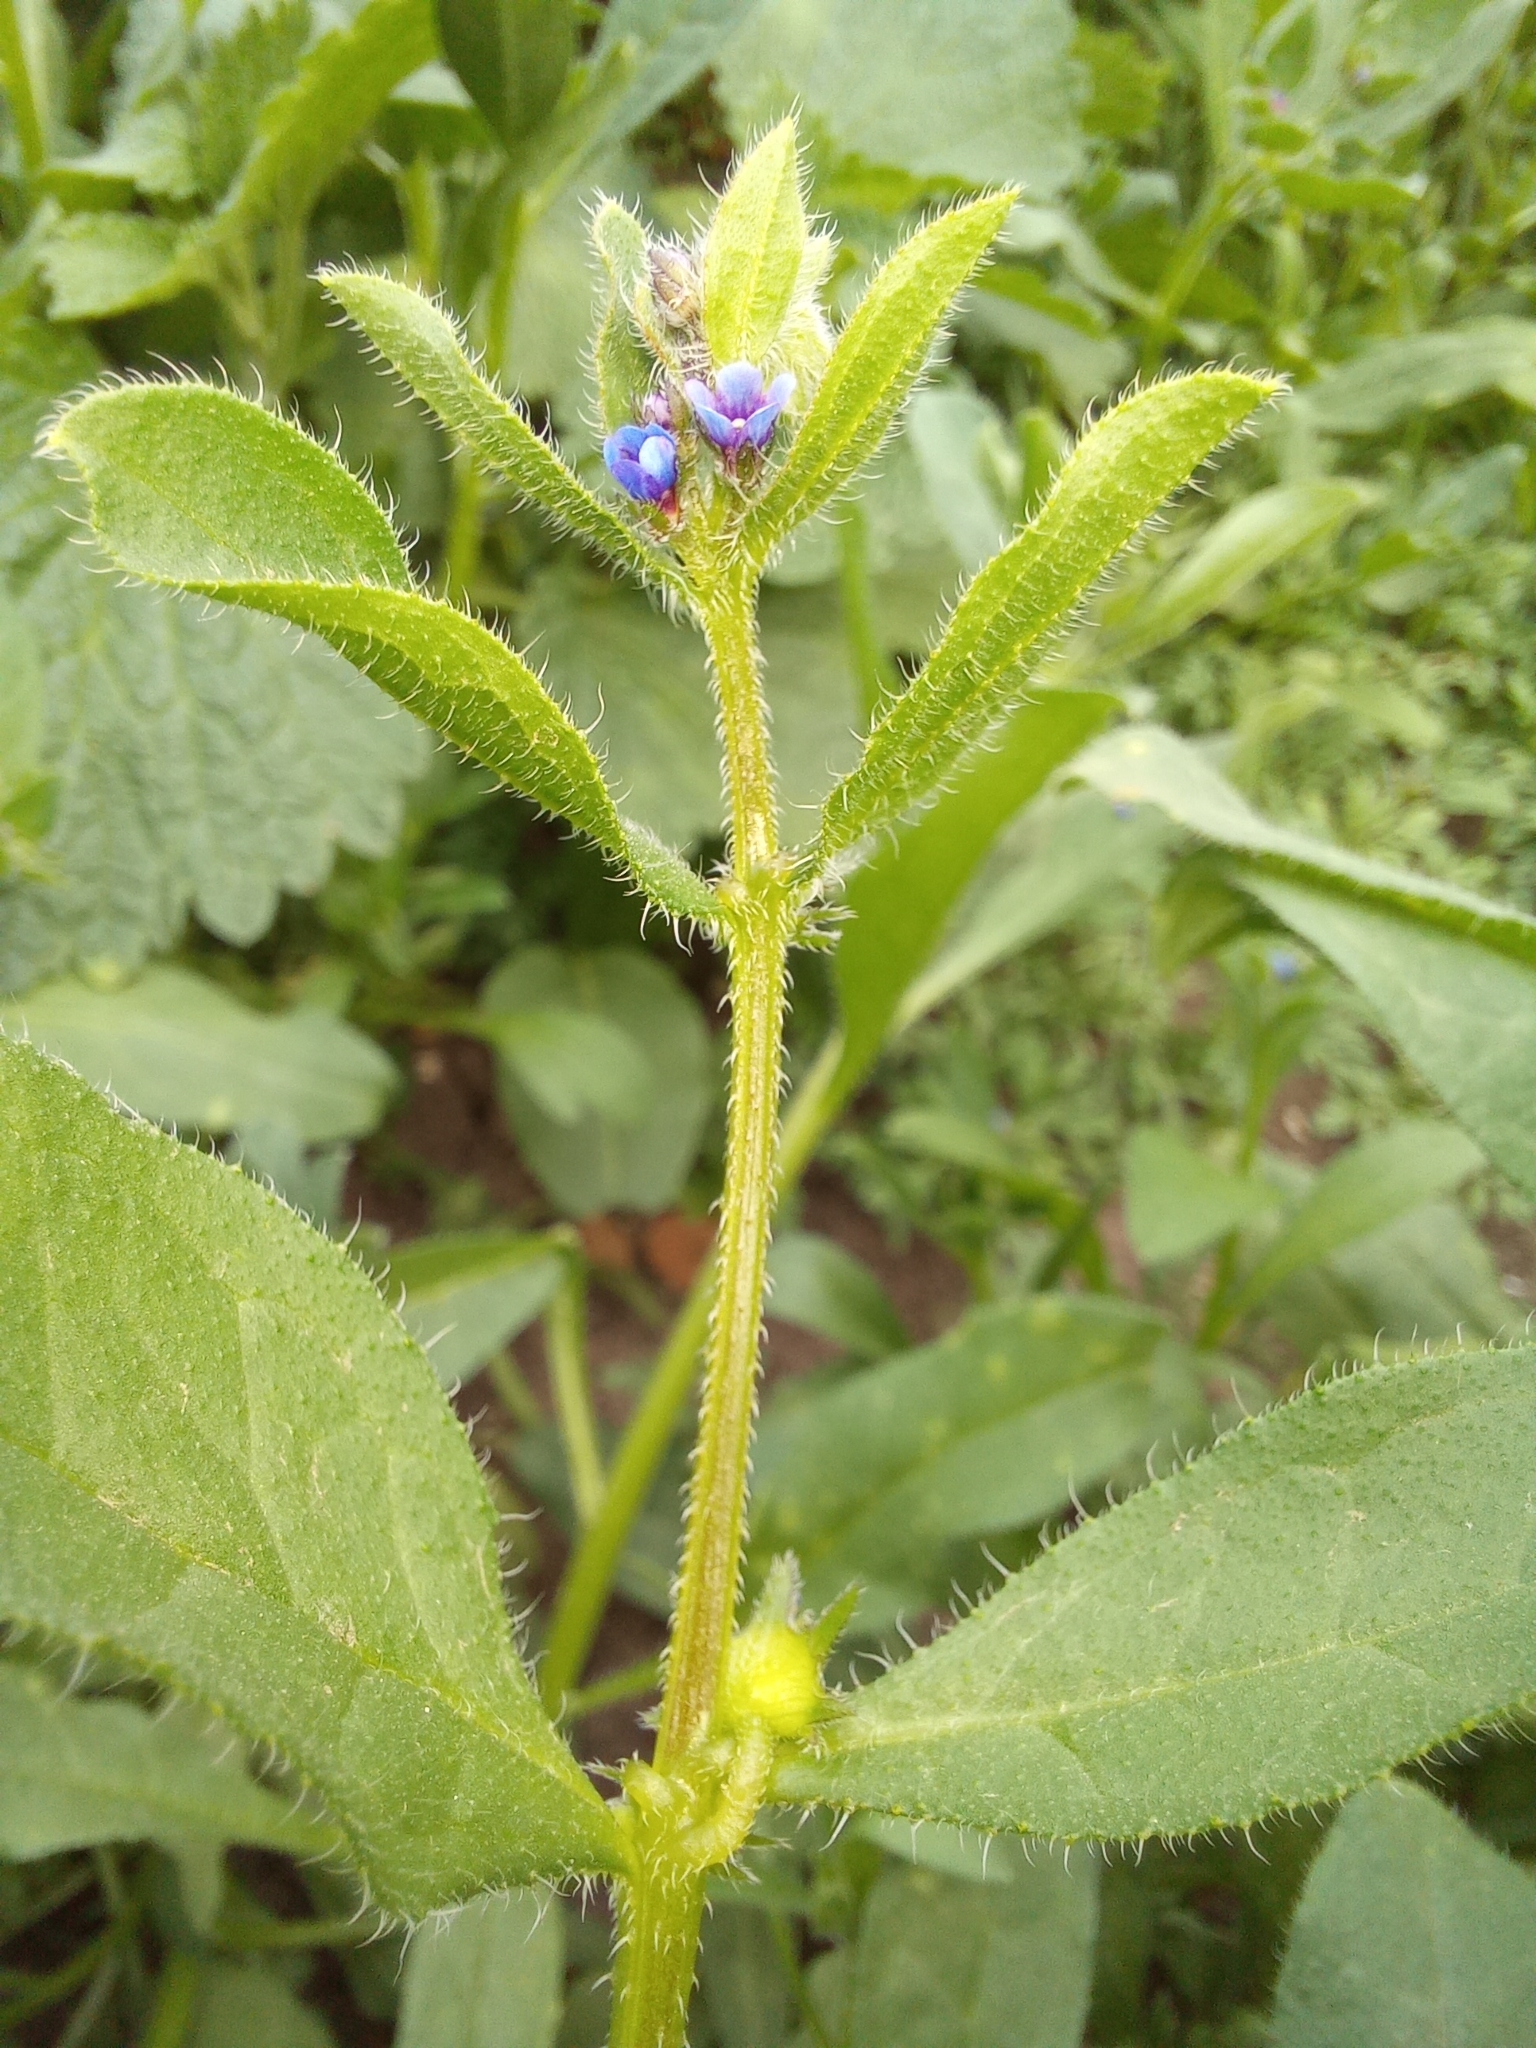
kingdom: Plantae
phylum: Tracheophyta
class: Magnoliopsida
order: Boraginales
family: Boraginaceae
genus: Asperugo
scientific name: Asperugo procumbens
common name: Madwort
